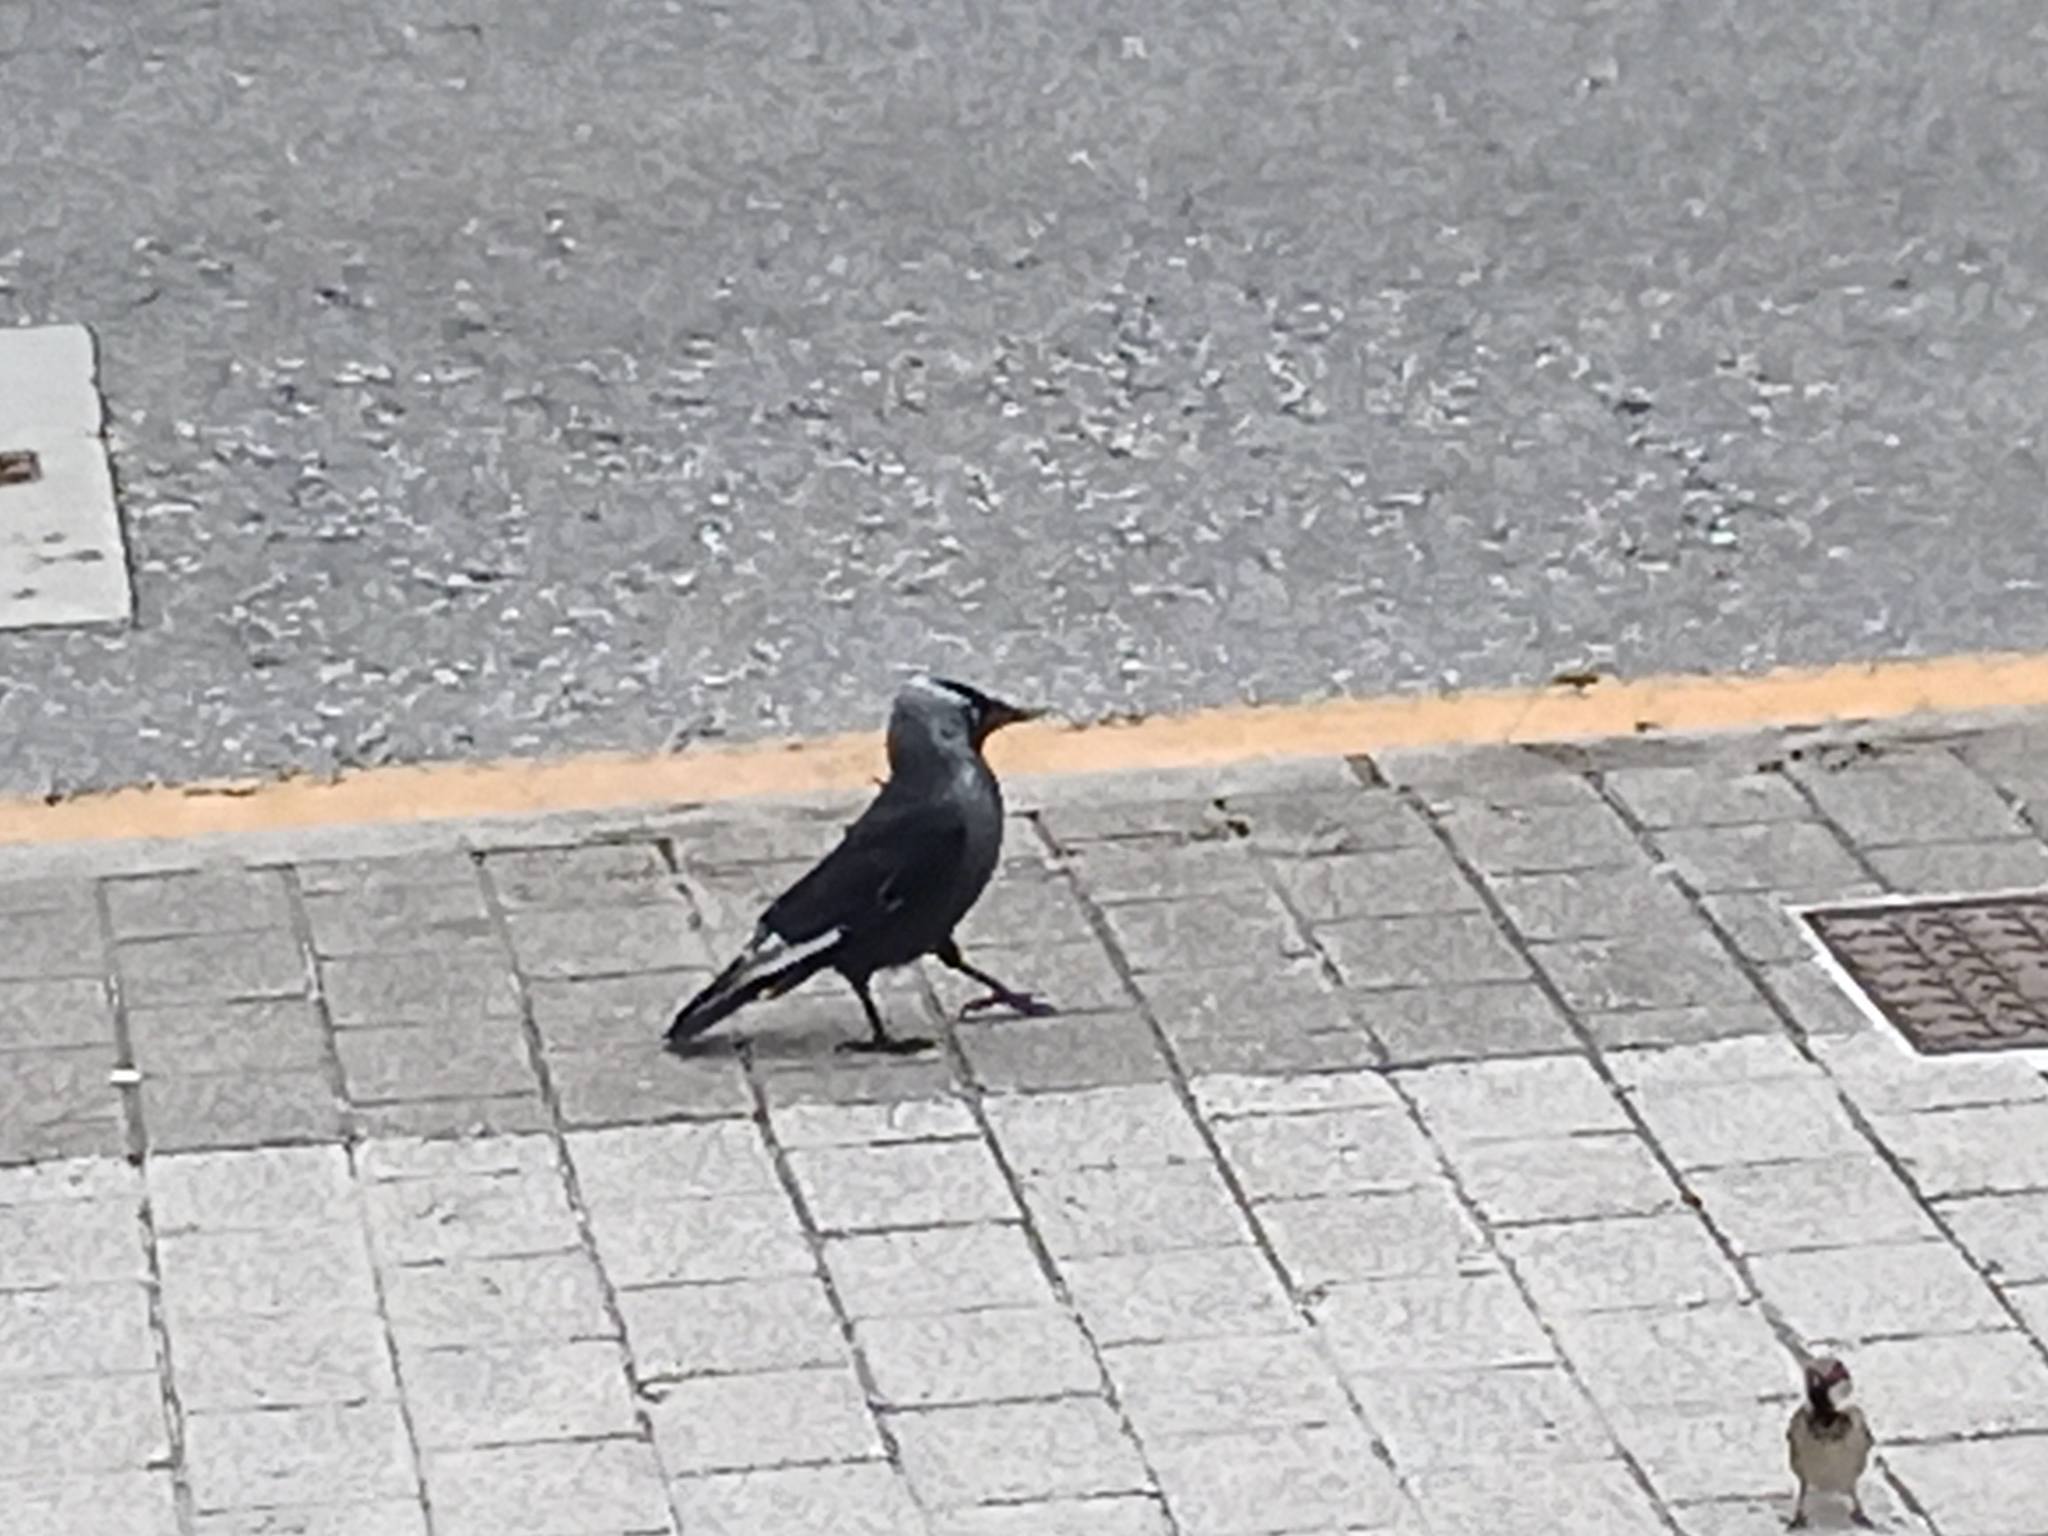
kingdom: Animalia
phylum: Chordata
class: Aves
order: Passeriformes
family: Corvidae
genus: Coloeus
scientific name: Coloeus monedula
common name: Western jackdaw
